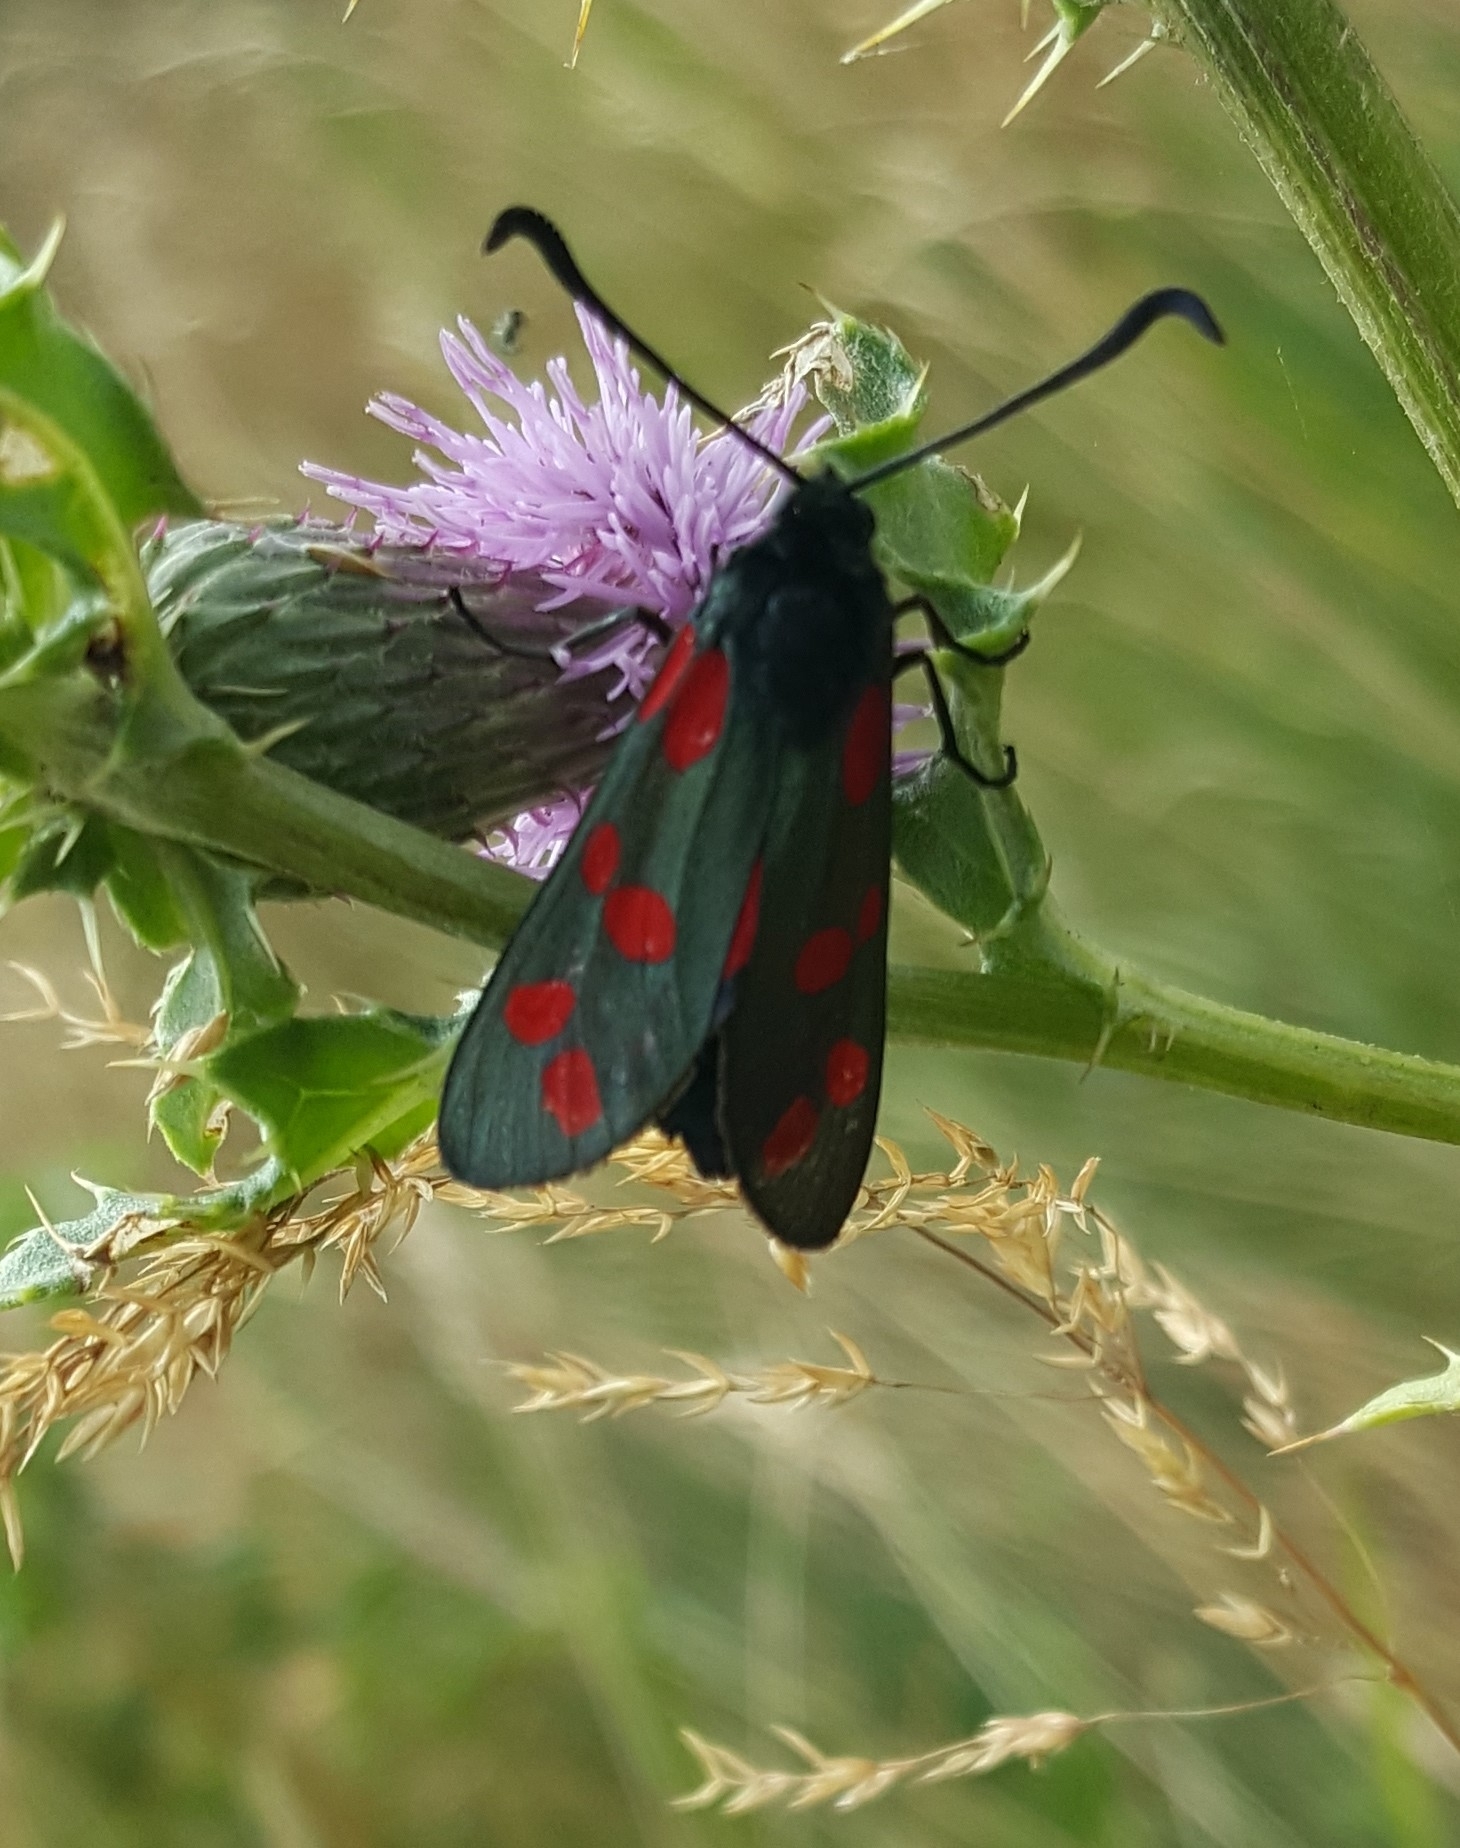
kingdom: Animalia
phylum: Arthropoda
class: Insecta
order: Lepidoptera
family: Zygaenidae
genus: Zygaena
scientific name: Zygaena filipendulae
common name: Six-spot burnet
